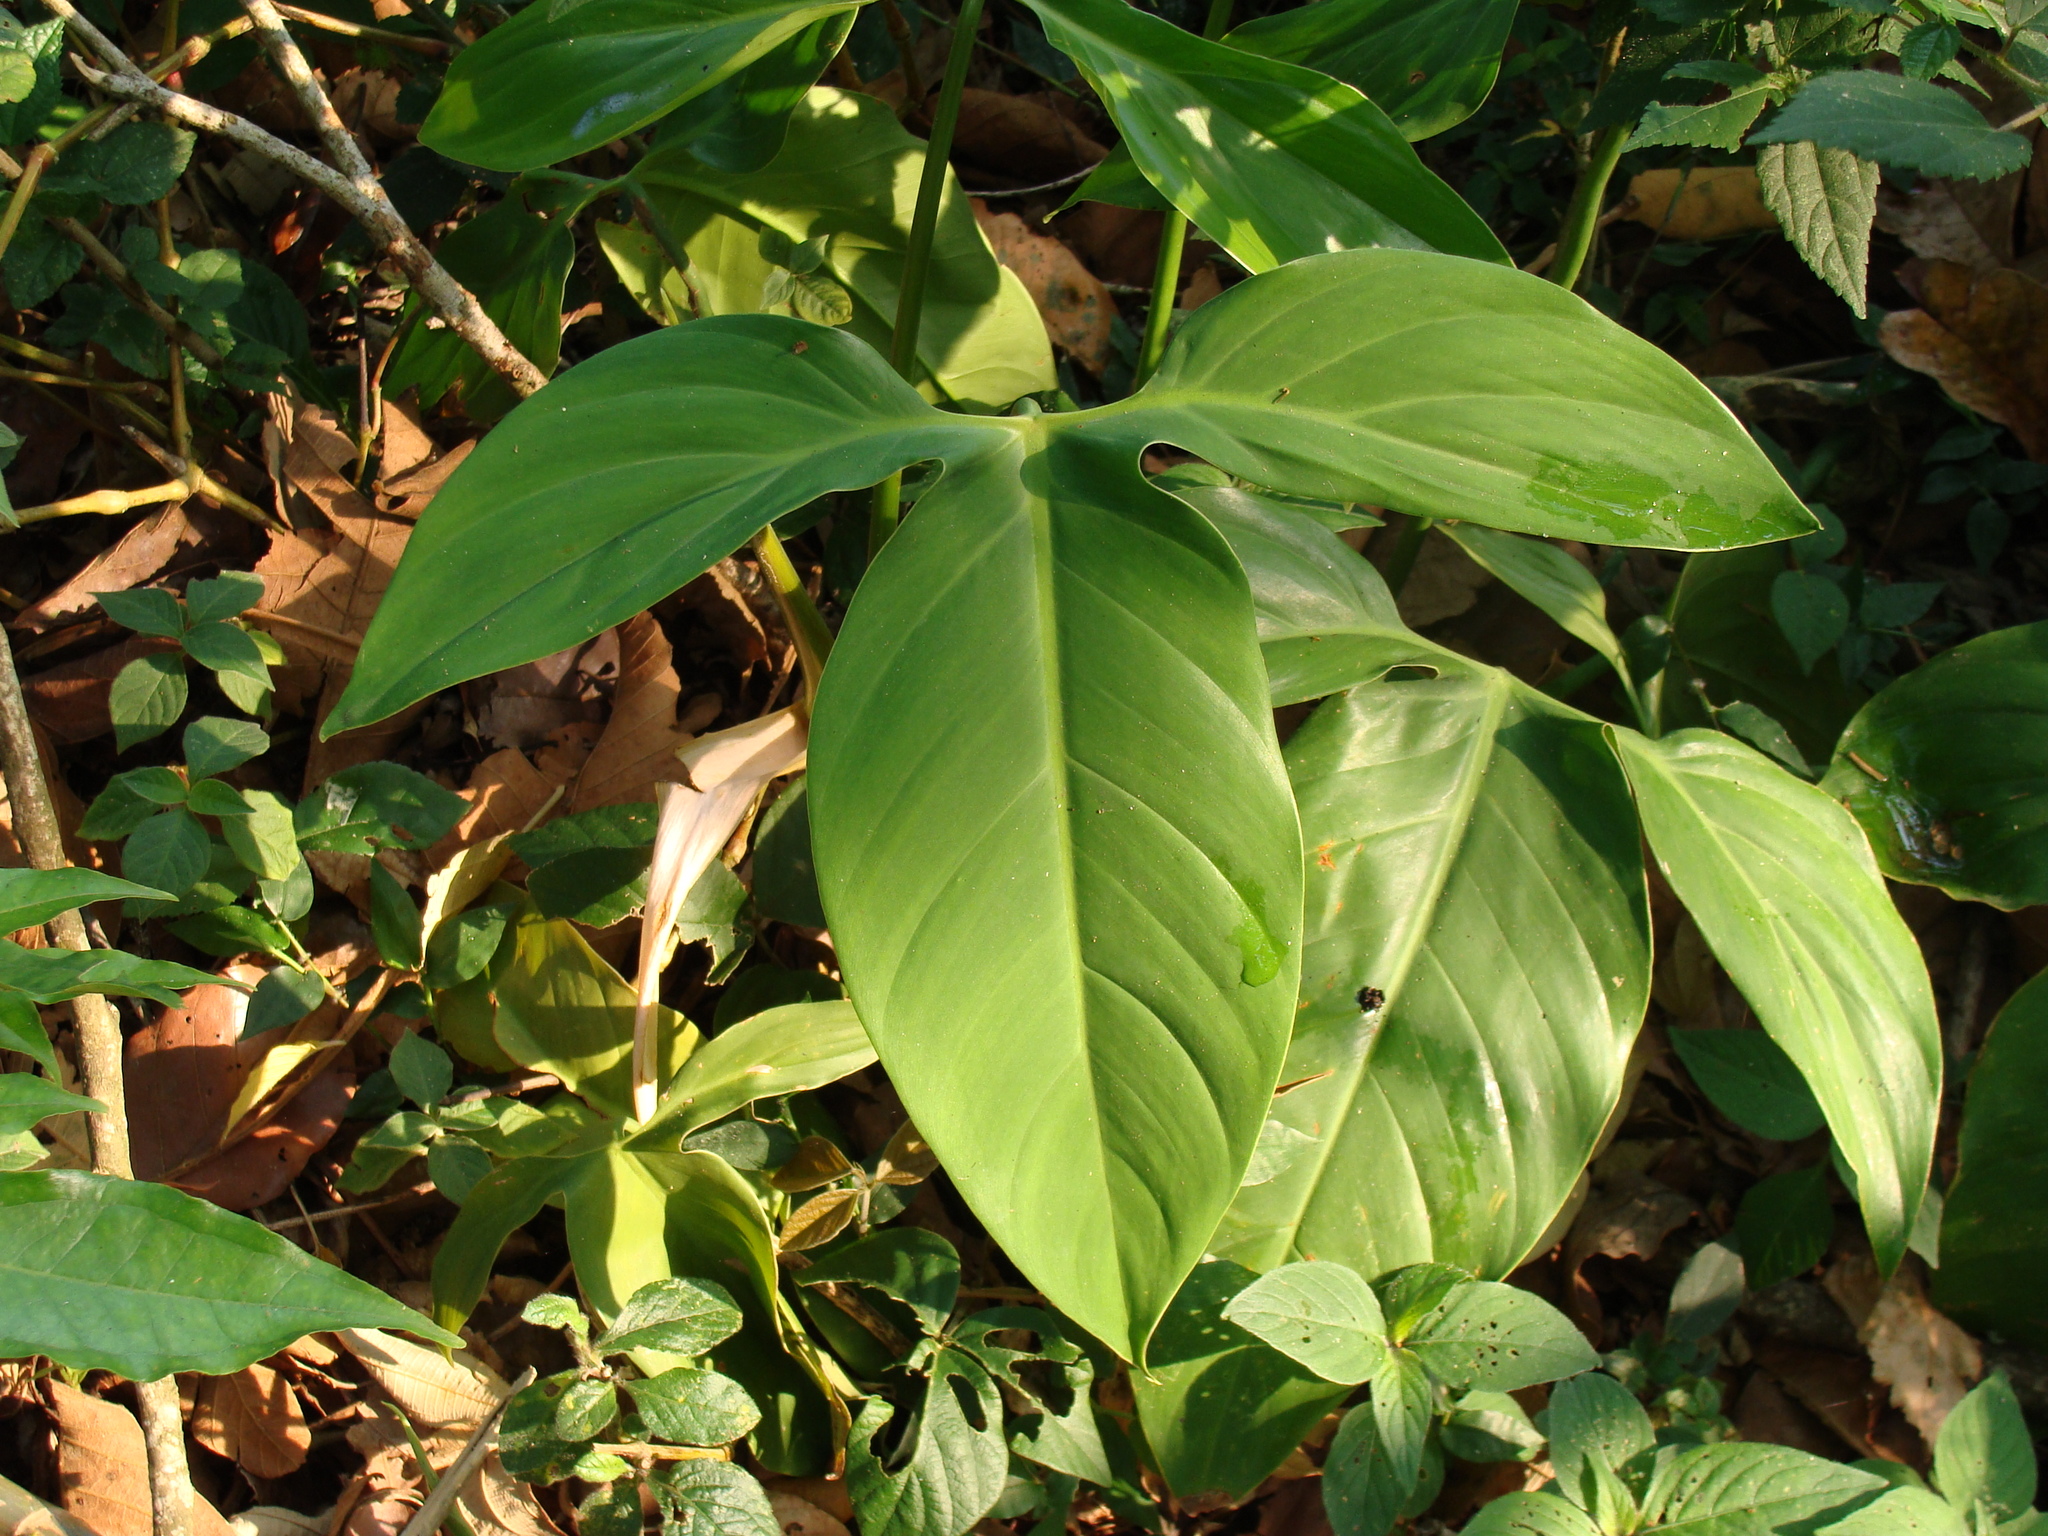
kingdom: Plantae
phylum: Tracheophyta
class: Liliopsida
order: Alismatales
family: Araceae
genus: Philodendron
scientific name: Philodendron anisotomum
